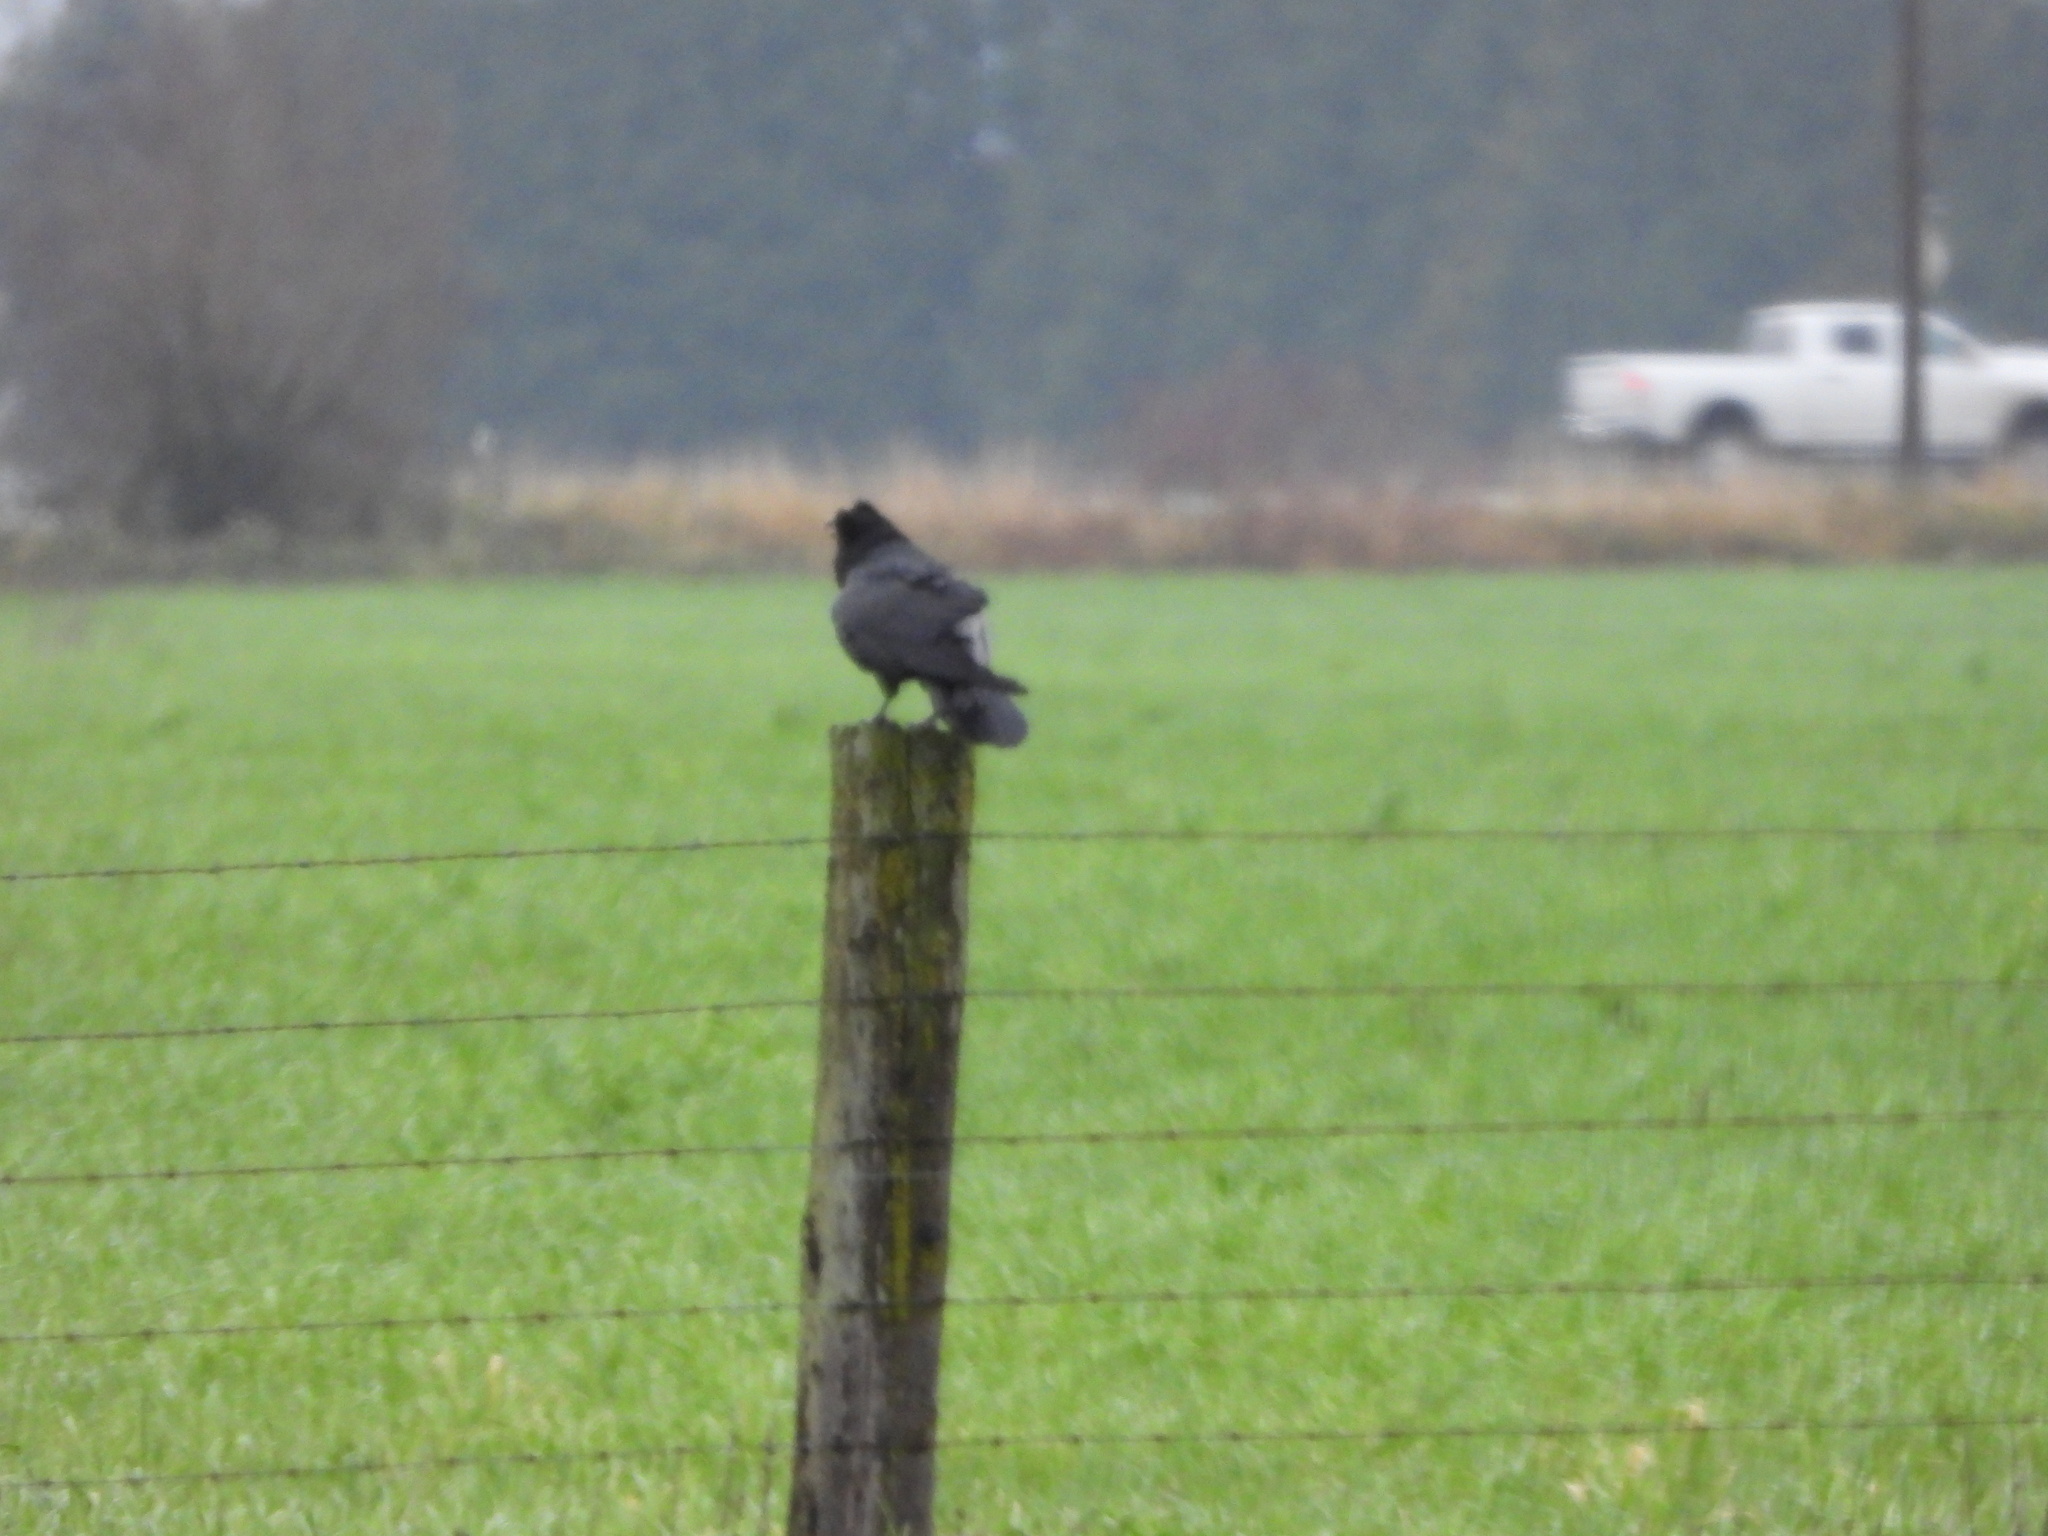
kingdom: Animalia
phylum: Chordata
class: Aves
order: Passeriformes
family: Corvidae
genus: Corvus
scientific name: Corvus corax
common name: Common raven
